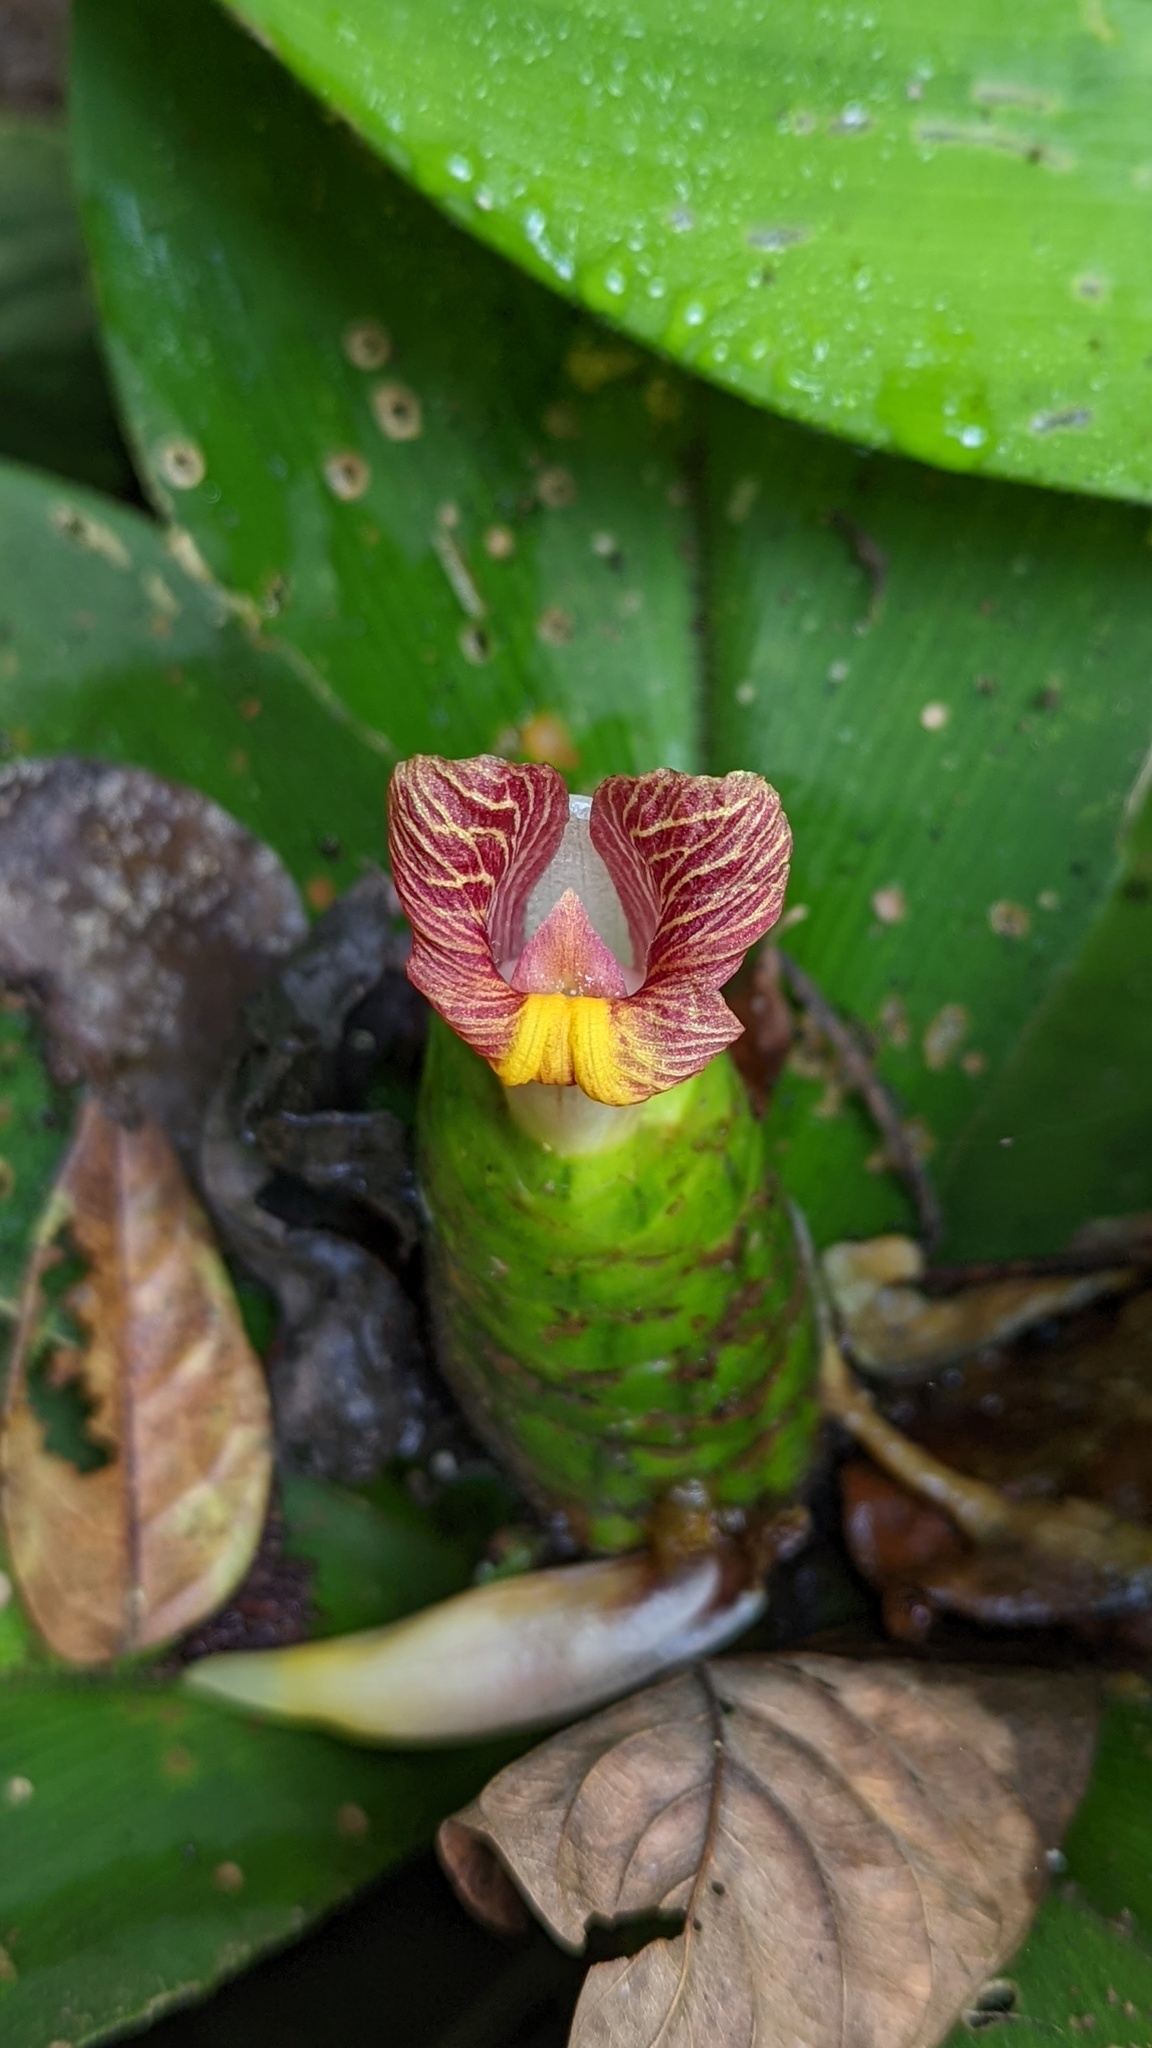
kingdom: Plantae
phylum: Tracheophyta
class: Liliopsida
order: Zingiberales
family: Costaceae
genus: Costus
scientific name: Costus elegans
